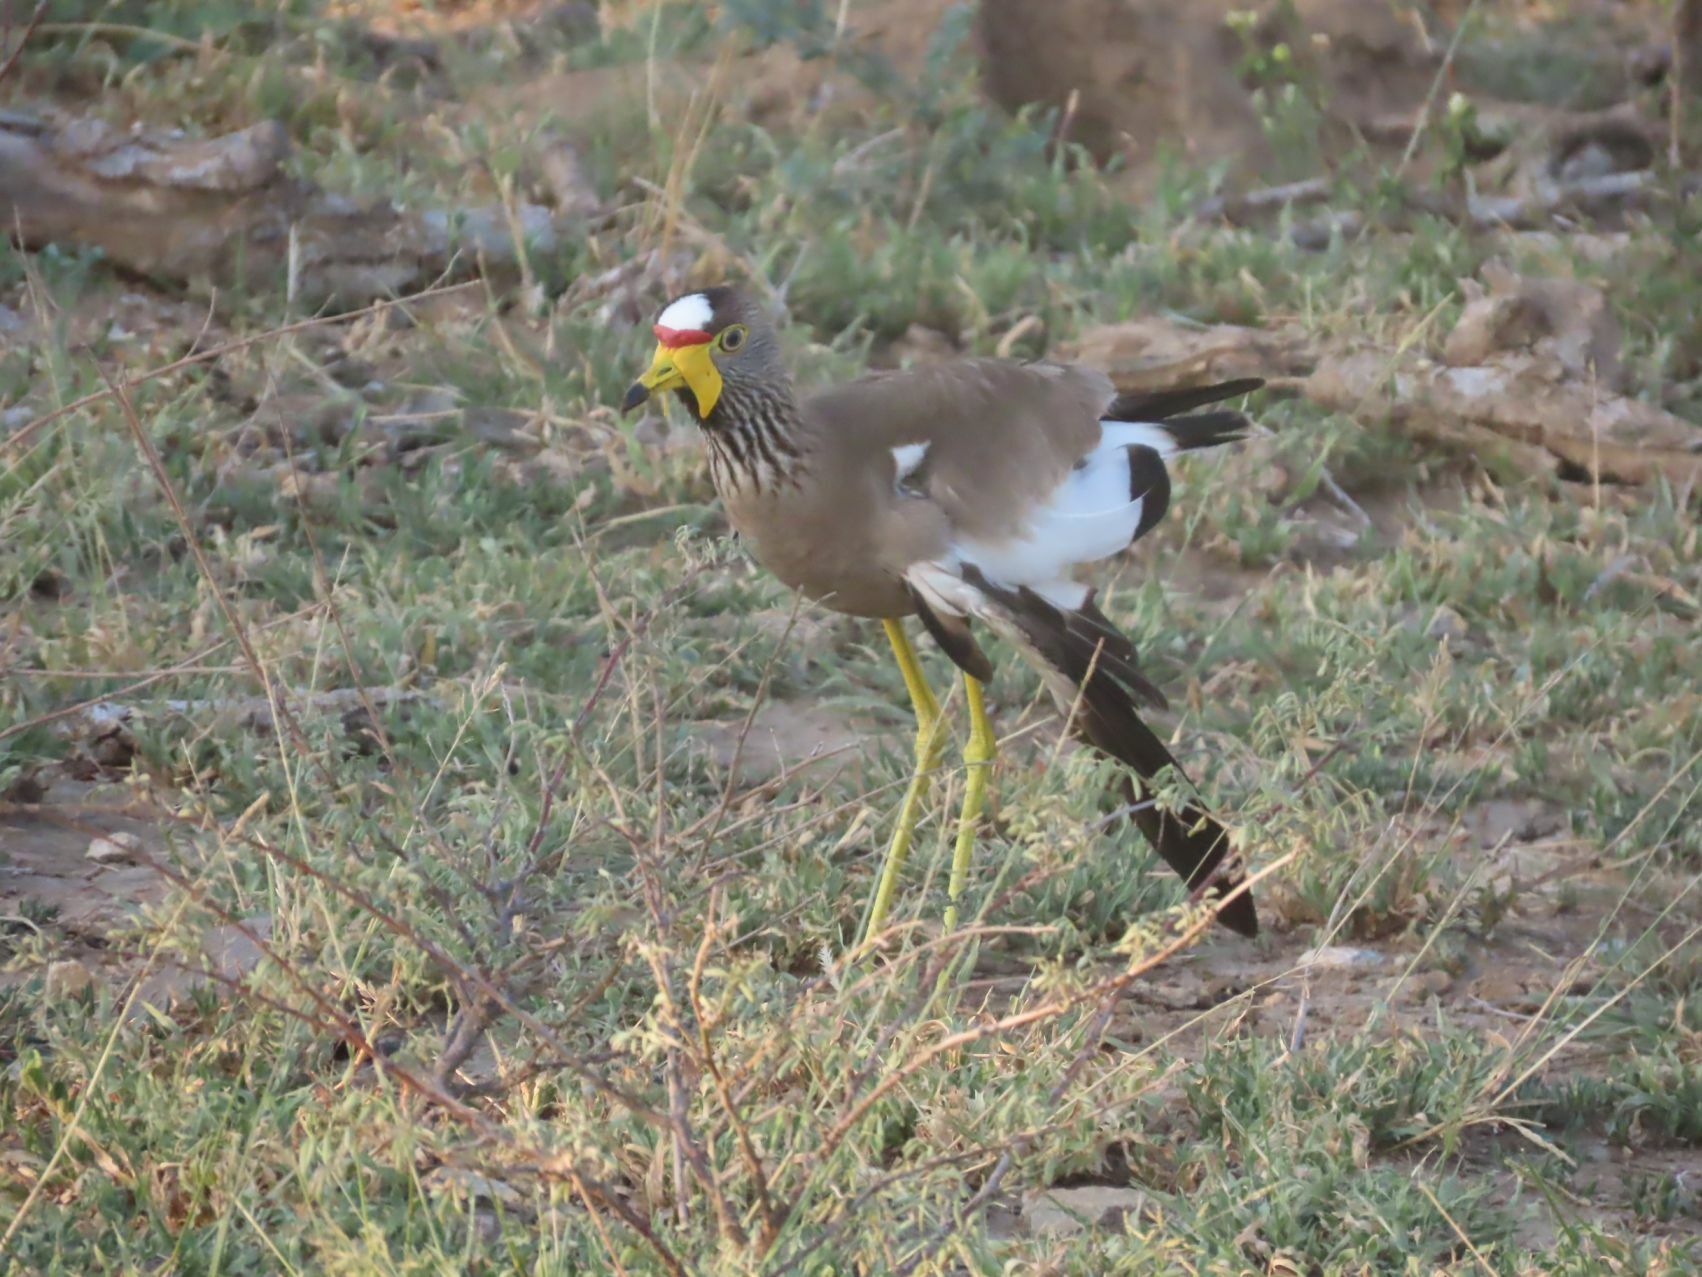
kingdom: Animalia
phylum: Chordata
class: Aves
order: Charadriiformes
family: Charadriidae
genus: Vanellus
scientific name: Vanellus senegallus
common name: African wattled lapwing
